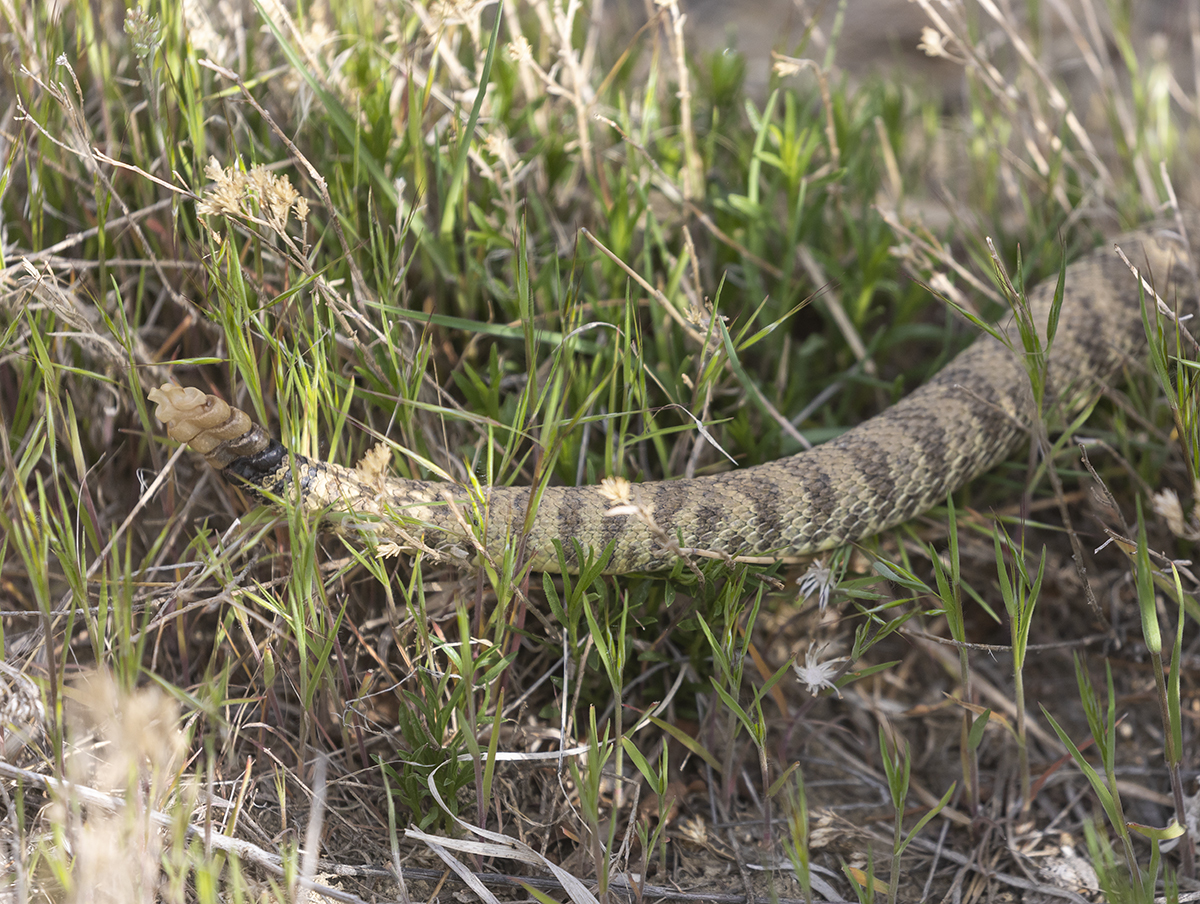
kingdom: Animalia
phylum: Chordata
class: Squamata
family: Viperidae
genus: Crotalus
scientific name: Crotalus viridis
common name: Prairie rattlesnake
